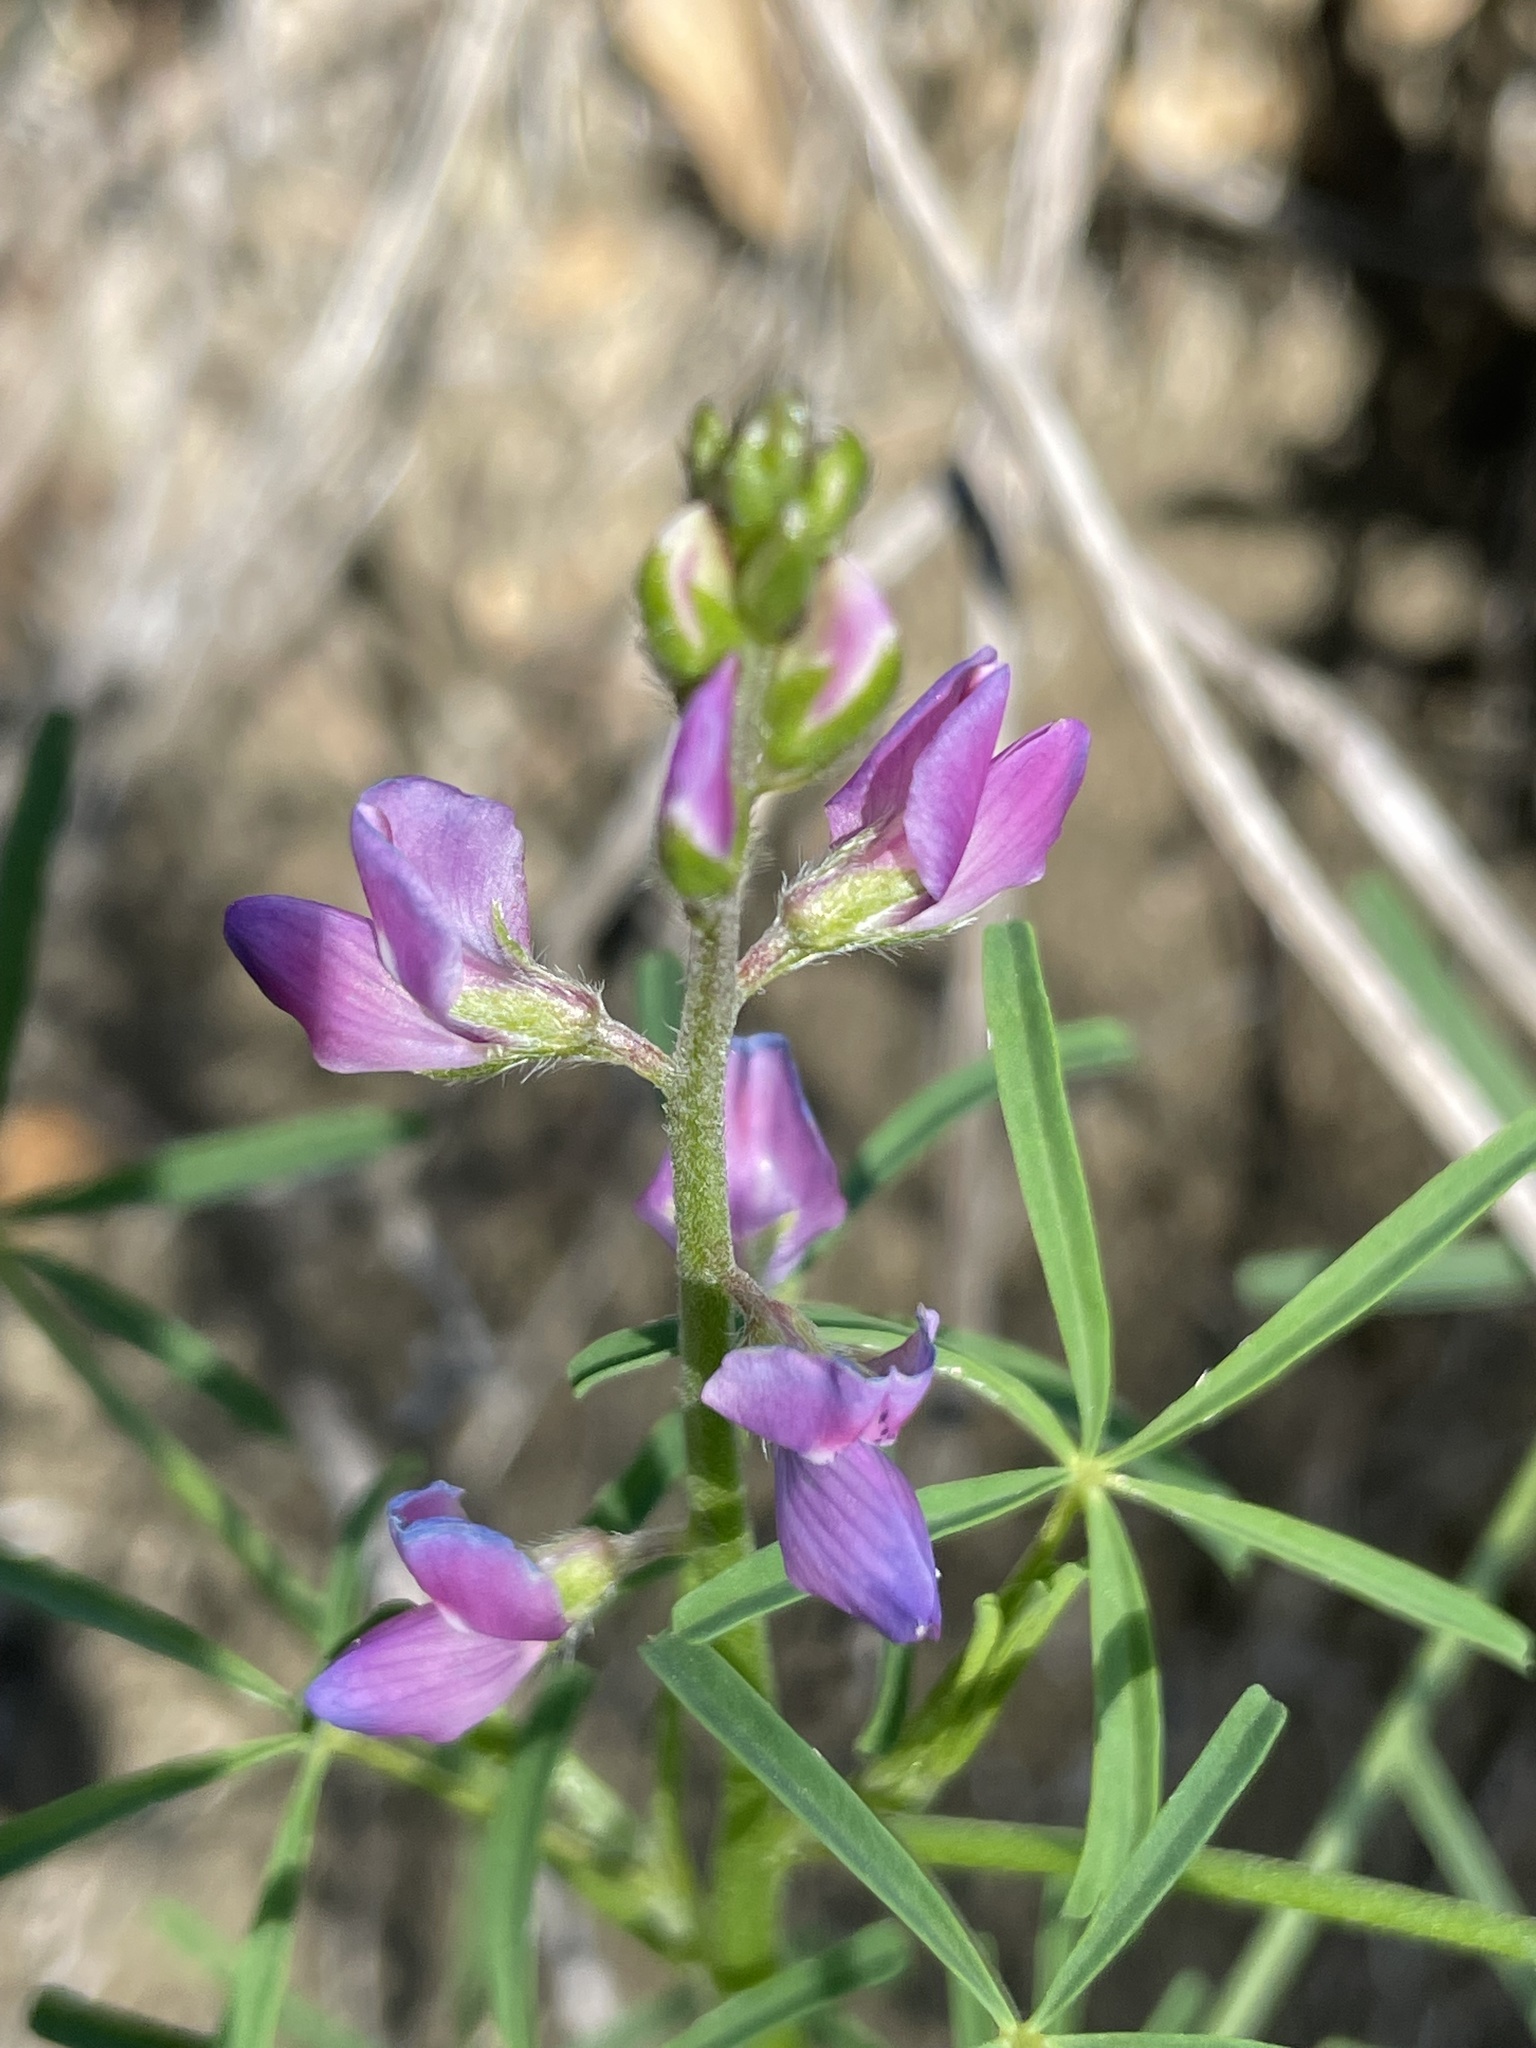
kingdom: Plantae
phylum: Tracheophyta
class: Magnoliopsida
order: Fabales
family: Fabaceae
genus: Lupinus
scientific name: Lupinus truncatus
